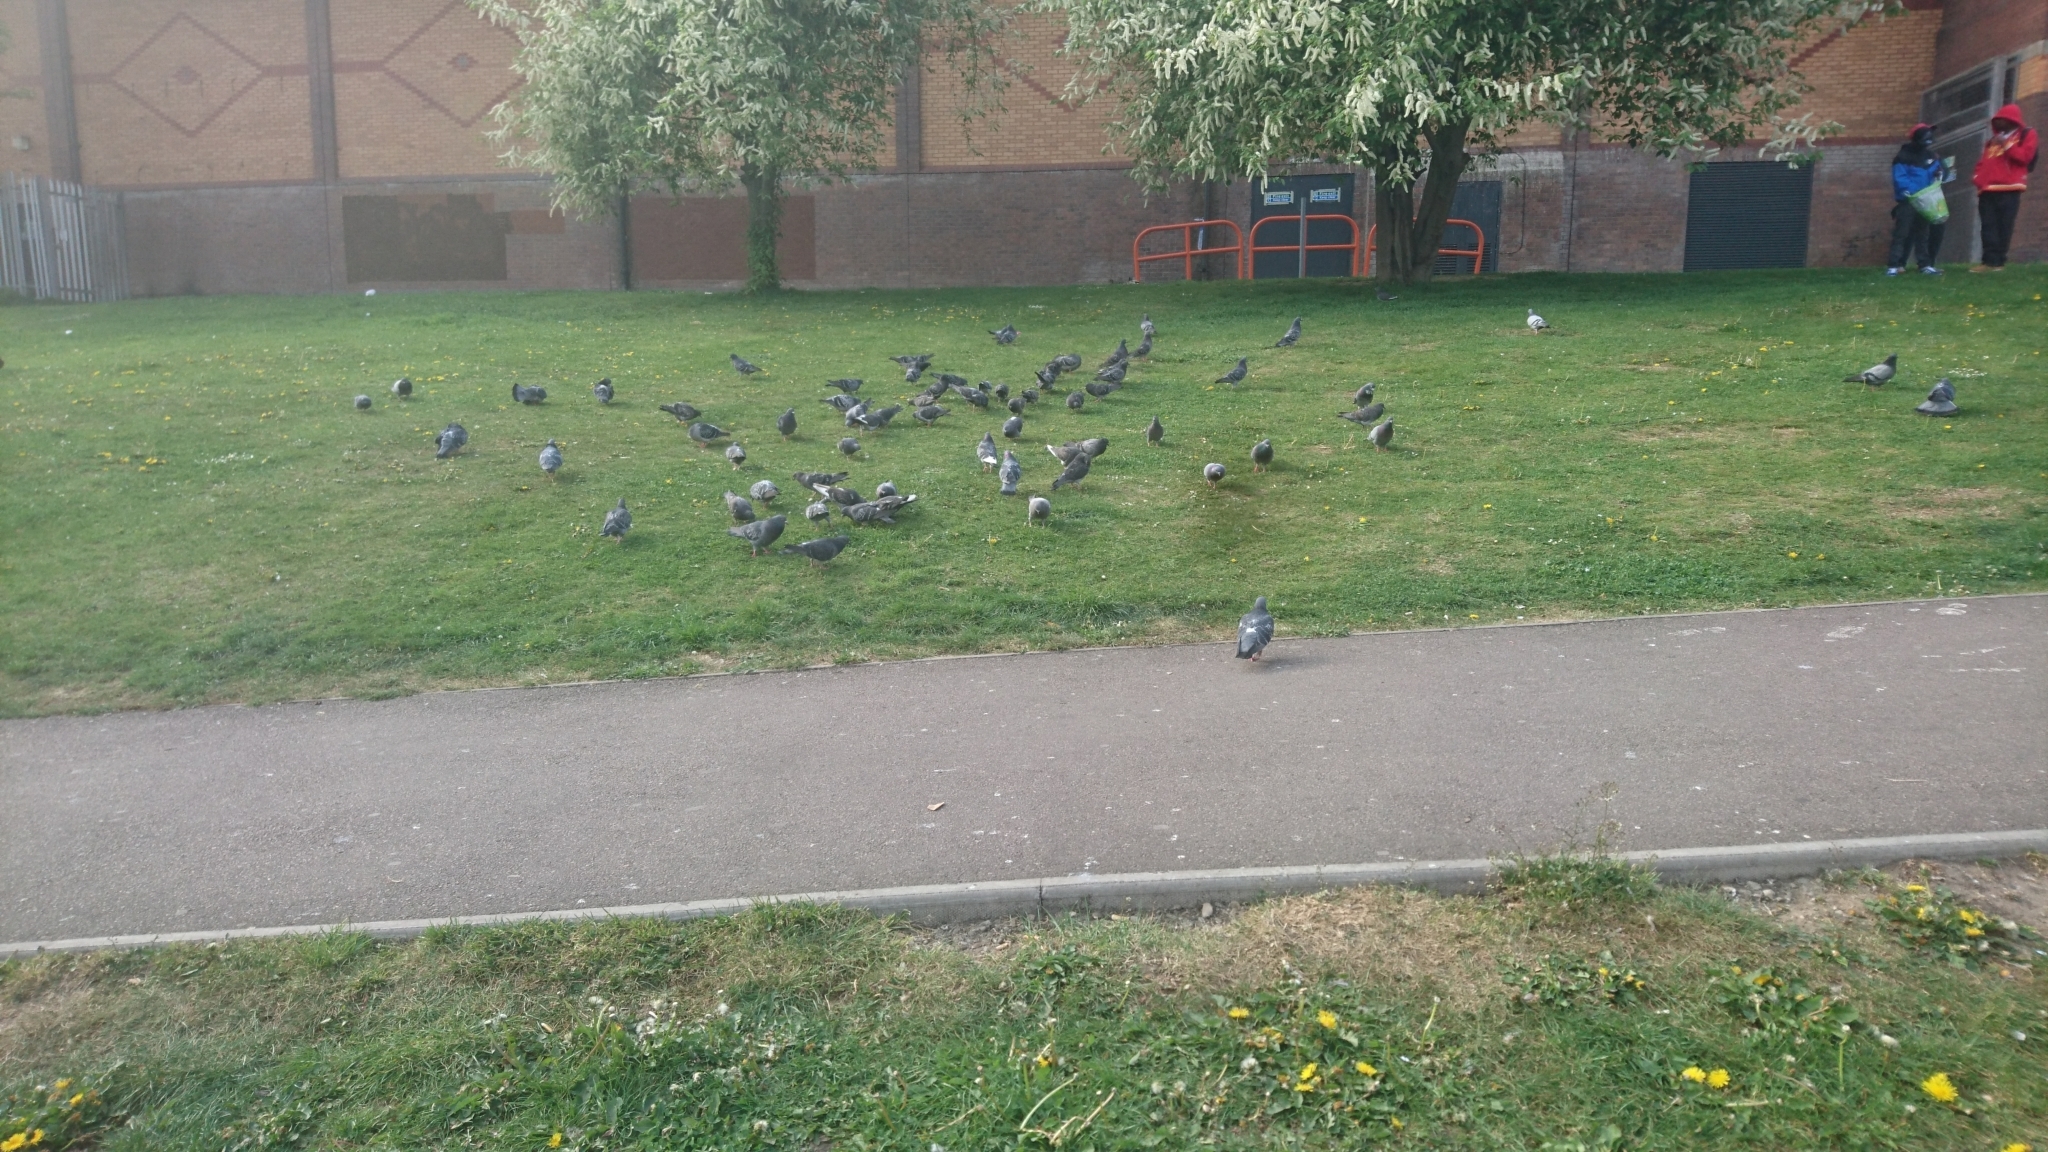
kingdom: Animalia
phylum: Chordata
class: Aves
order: Columbiformes
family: Columbidae
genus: Columba
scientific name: Columba livia
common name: Rock pigeon
